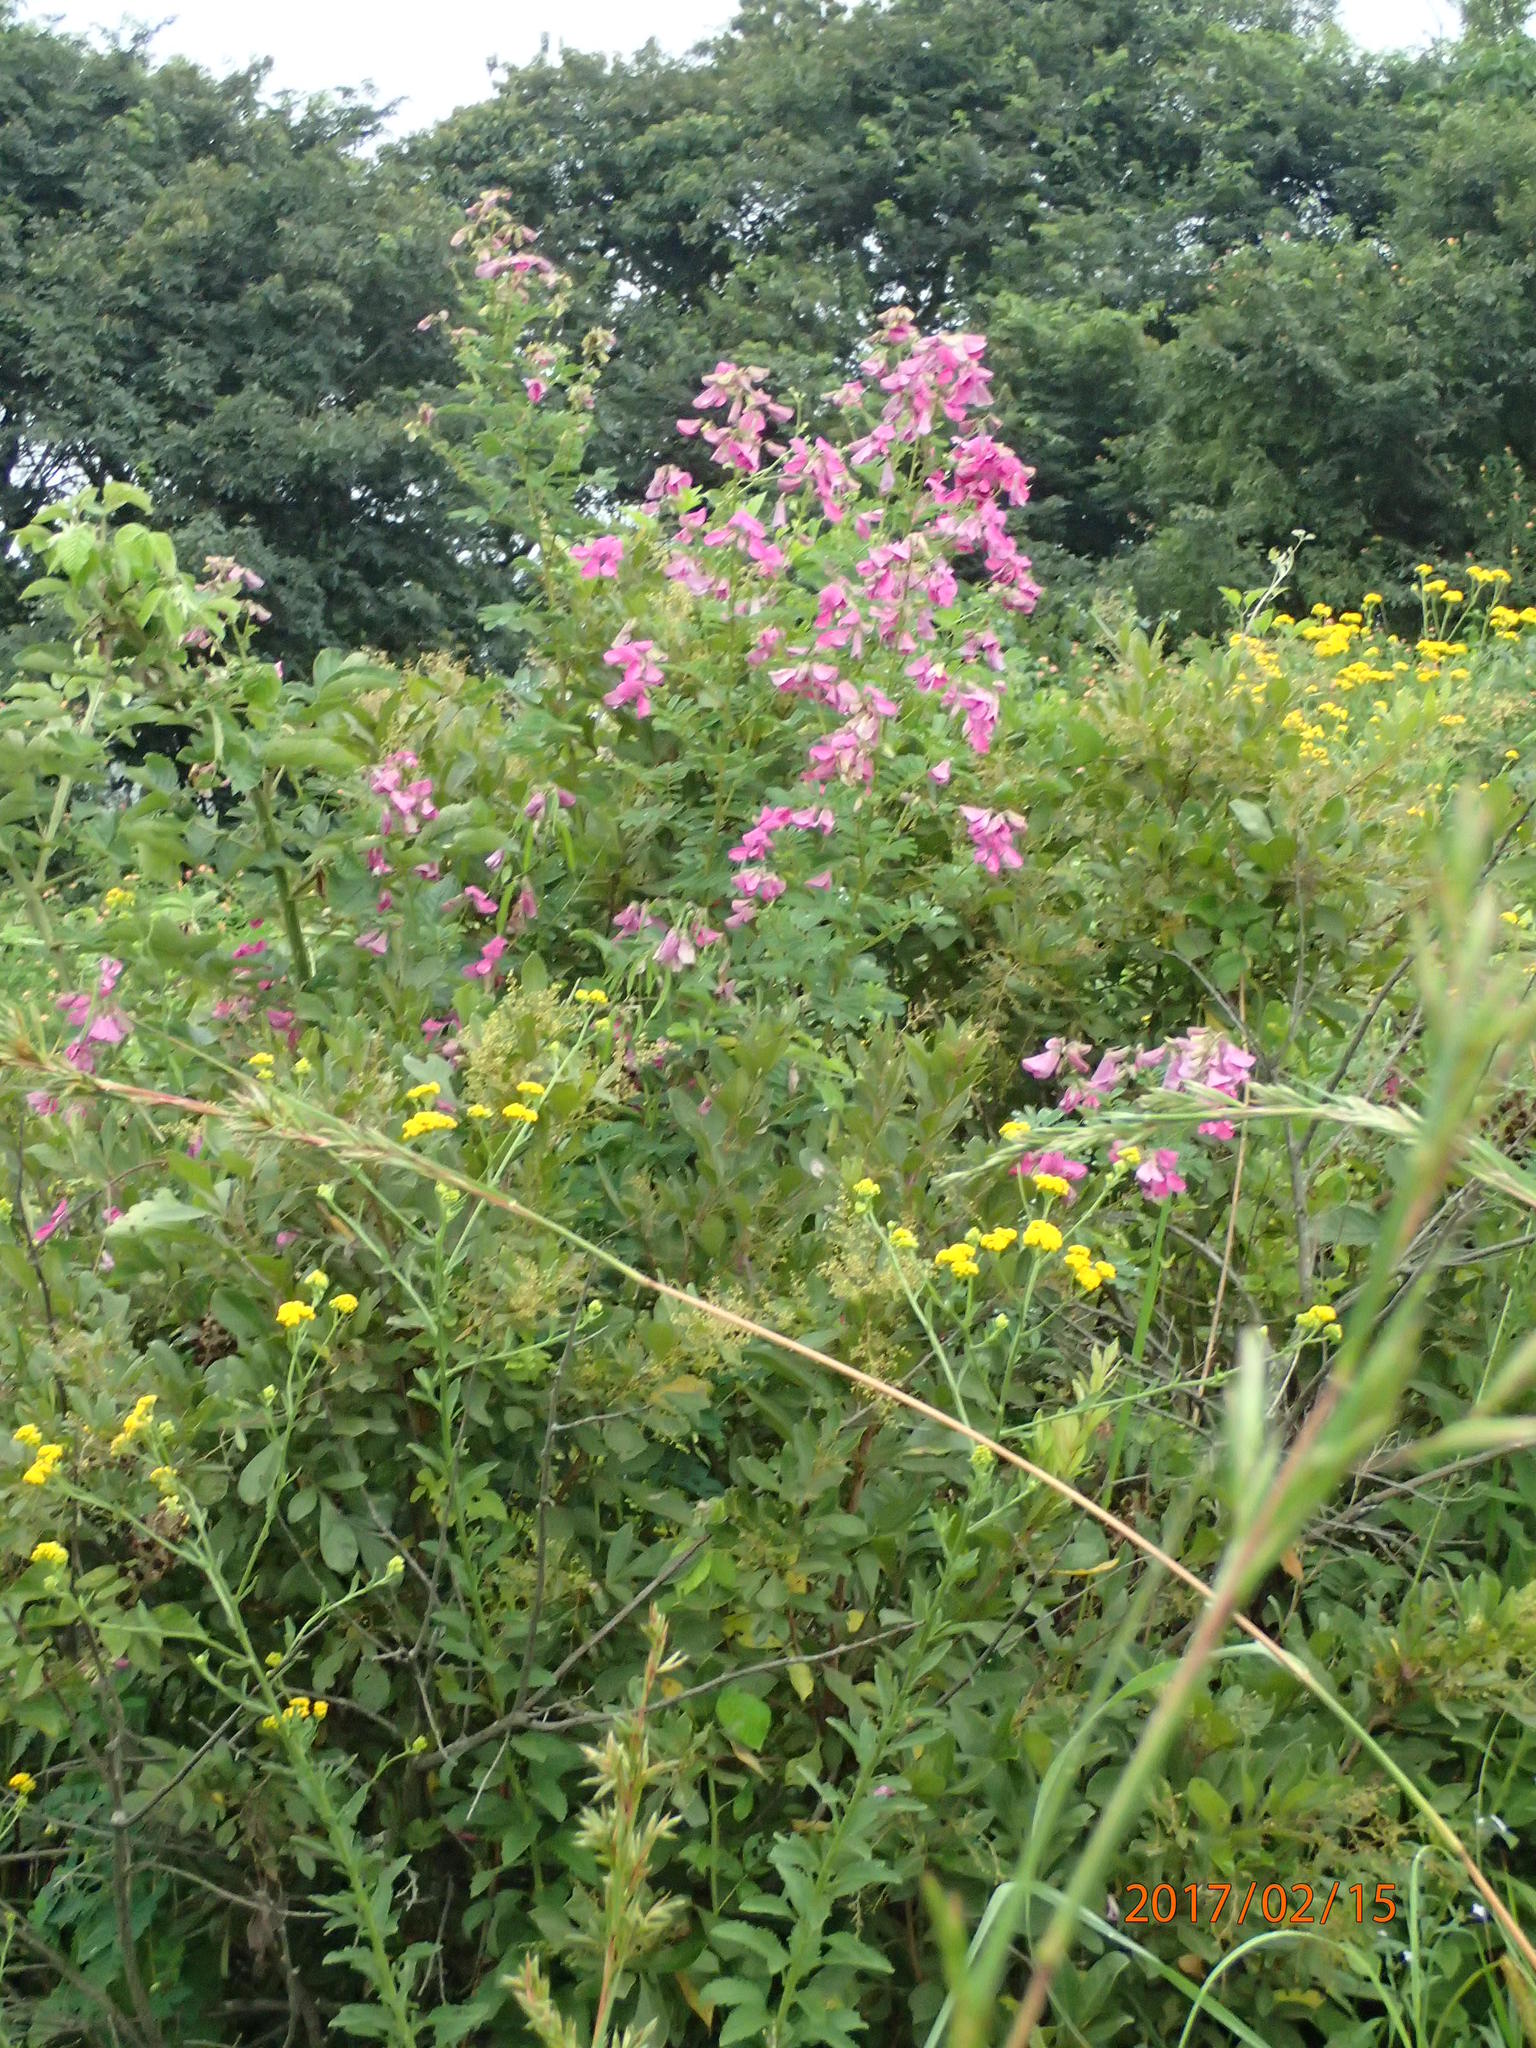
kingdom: Plantae
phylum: Tracheophyta
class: Magnoliopsida
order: Fabales
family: Fabaceae
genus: Tephrosia
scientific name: Tephrosia shiluwanensis
